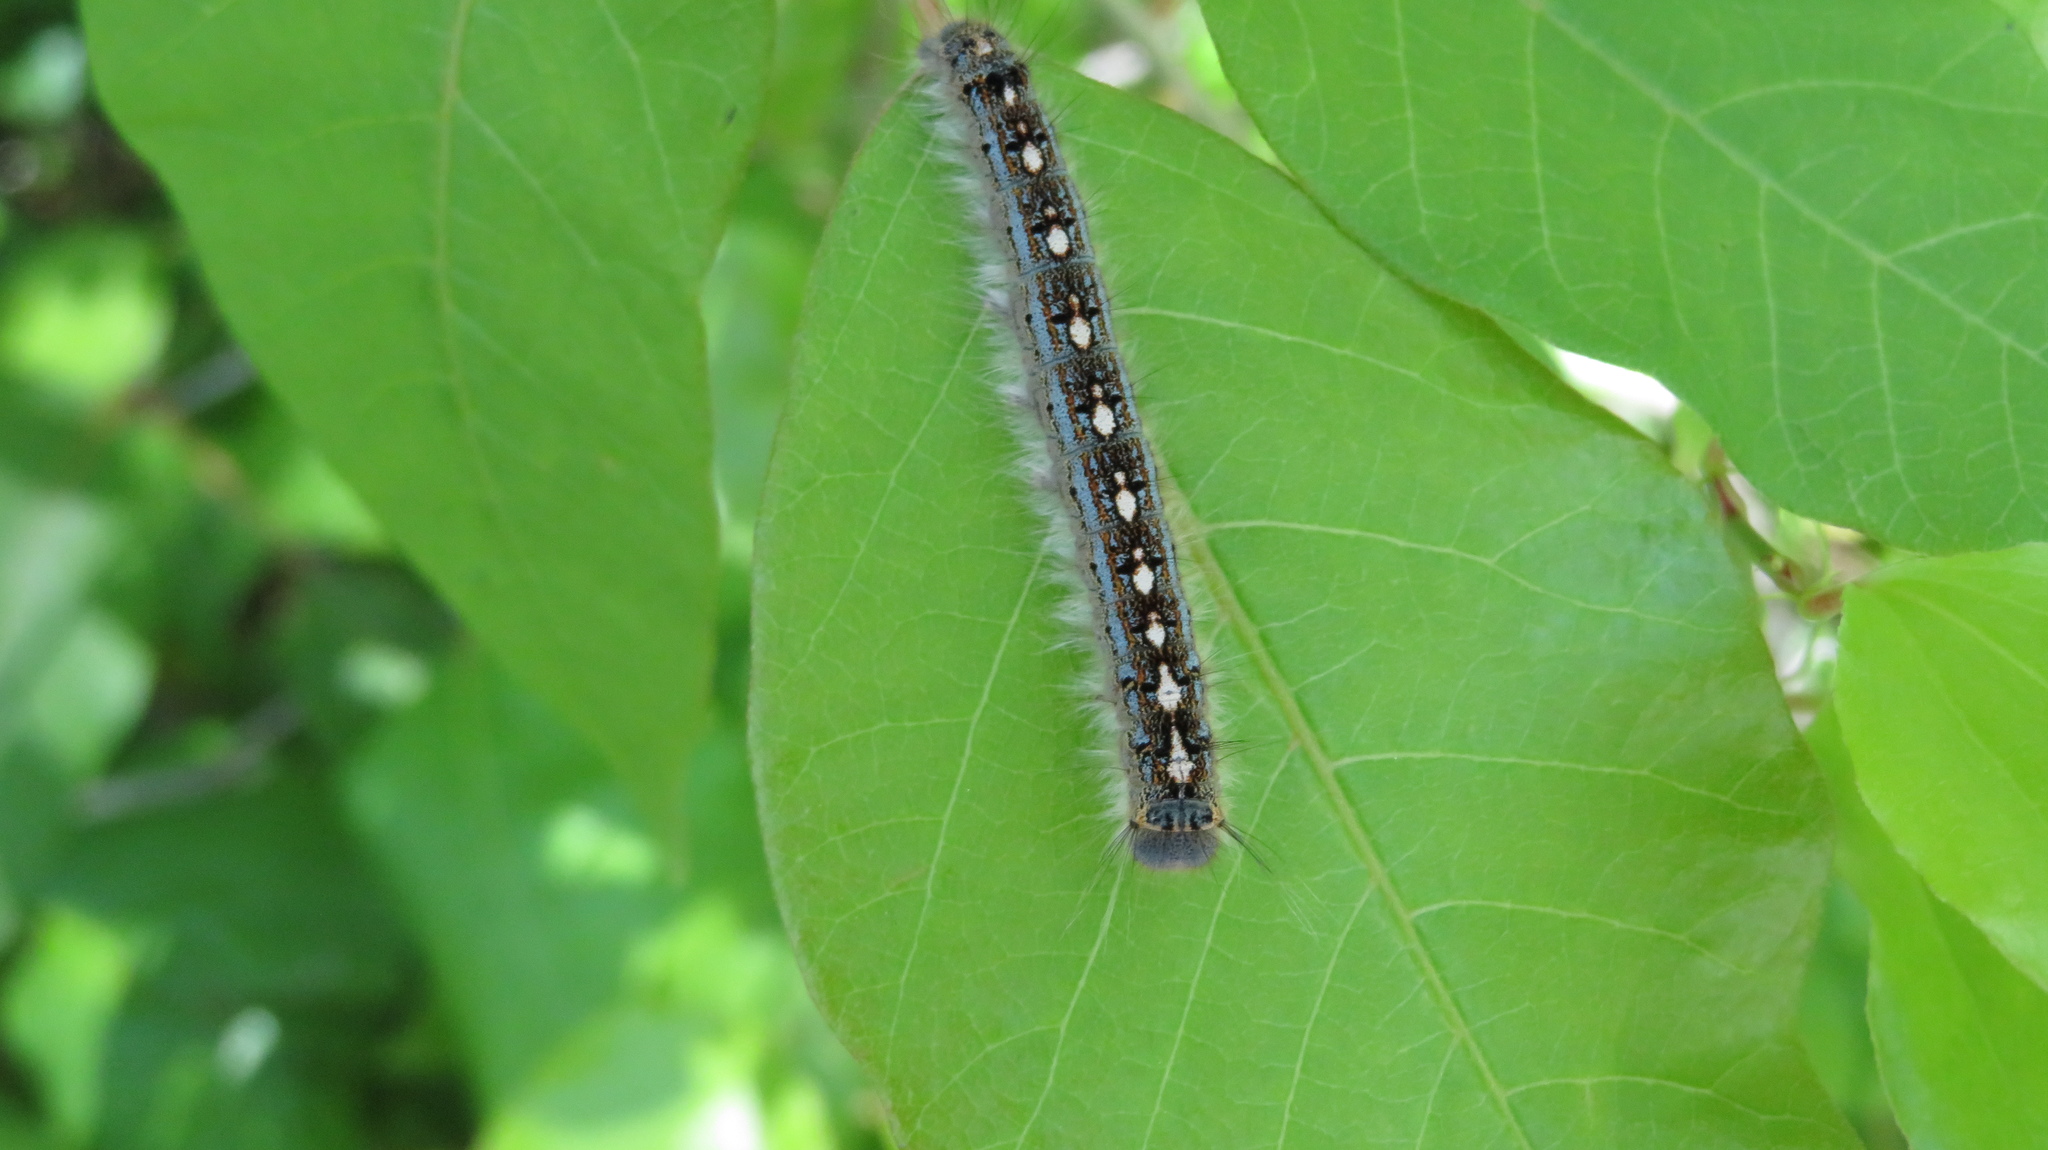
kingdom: Animalia
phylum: Arthropoda
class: Insecta
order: Lepidoptera
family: Lasiocampidae
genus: Malacosoma
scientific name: Malacosoma disstria
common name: Forest tent caterpillar
